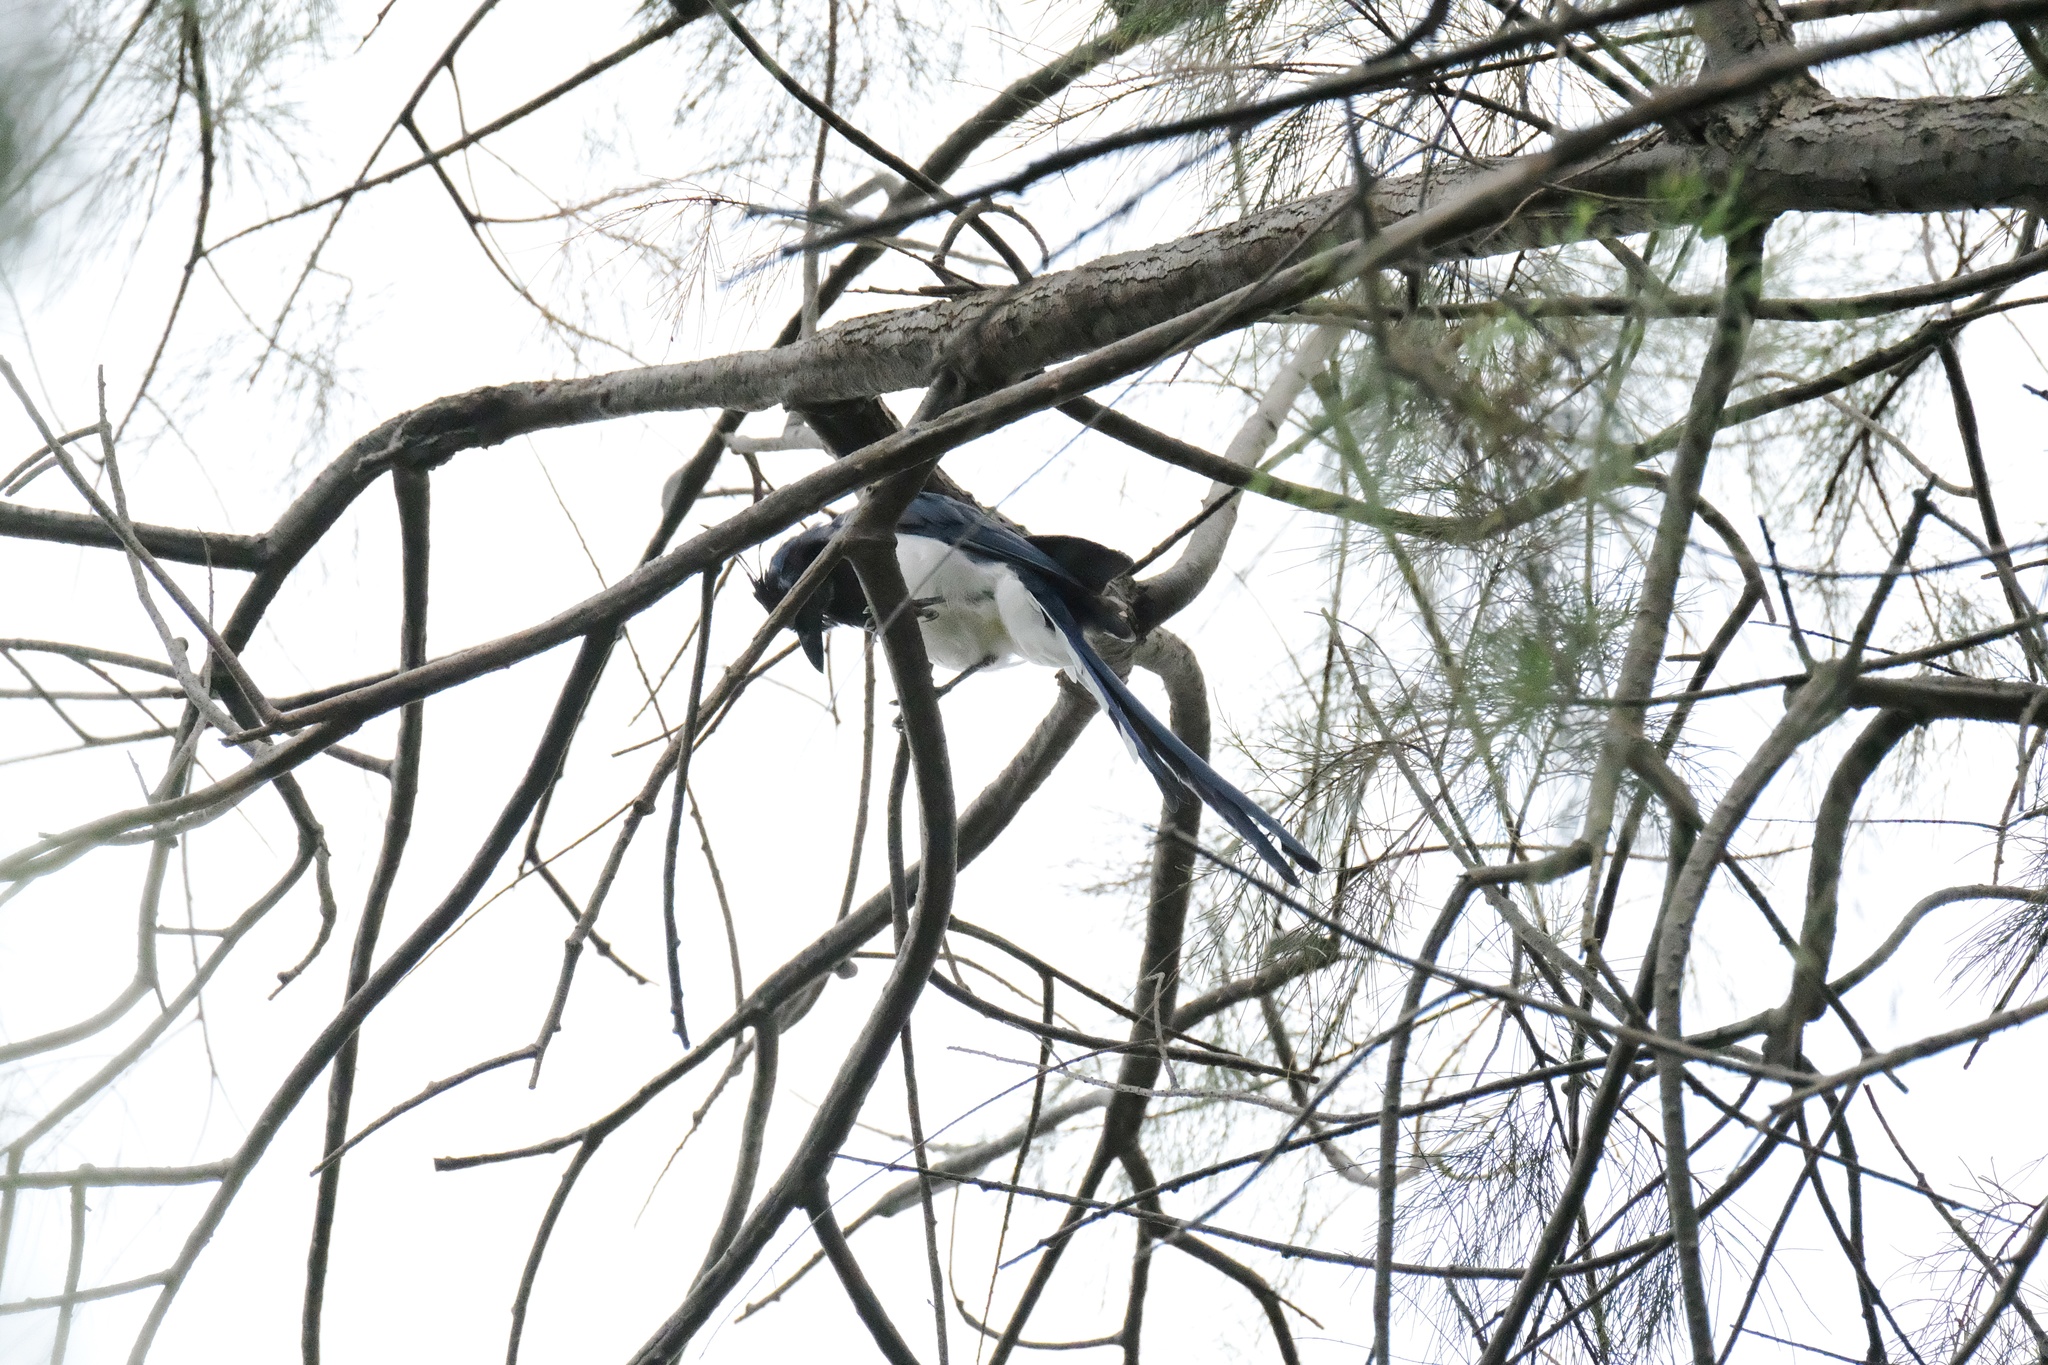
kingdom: Animalia
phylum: Chordata
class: Aves
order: Passeriformes
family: Corvidae
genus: Calocitta
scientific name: Calocitta colliei
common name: Black-throated magpie-jay
